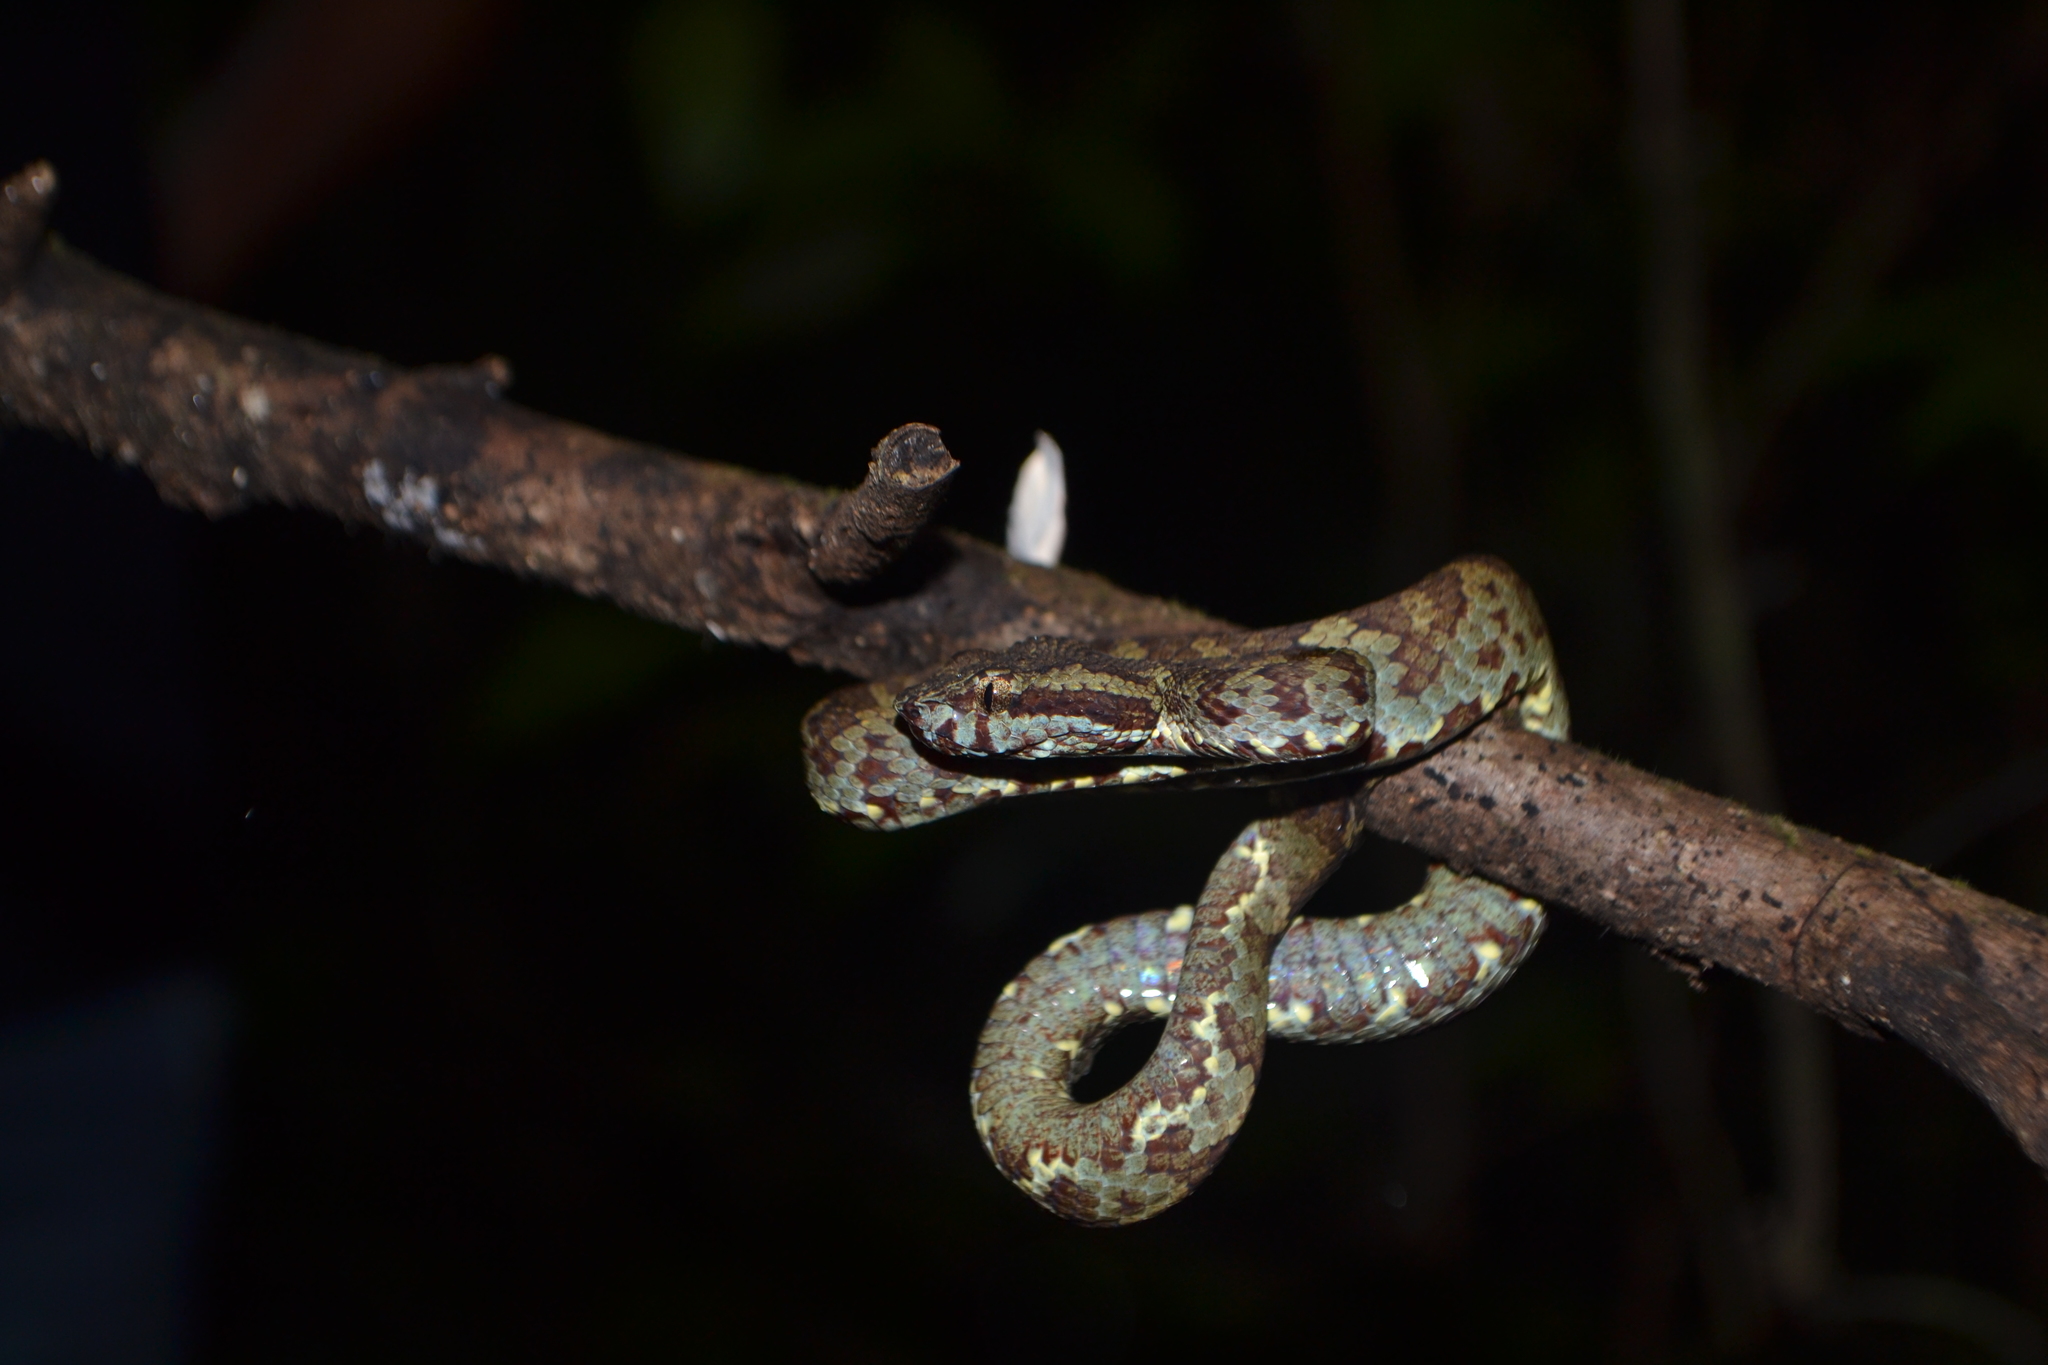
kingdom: Animalia
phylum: Chordata
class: Squamata
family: Viperidae
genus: Craspedocephalus
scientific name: Craspedocephalus malabaricus
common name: Malabarian pit viper
